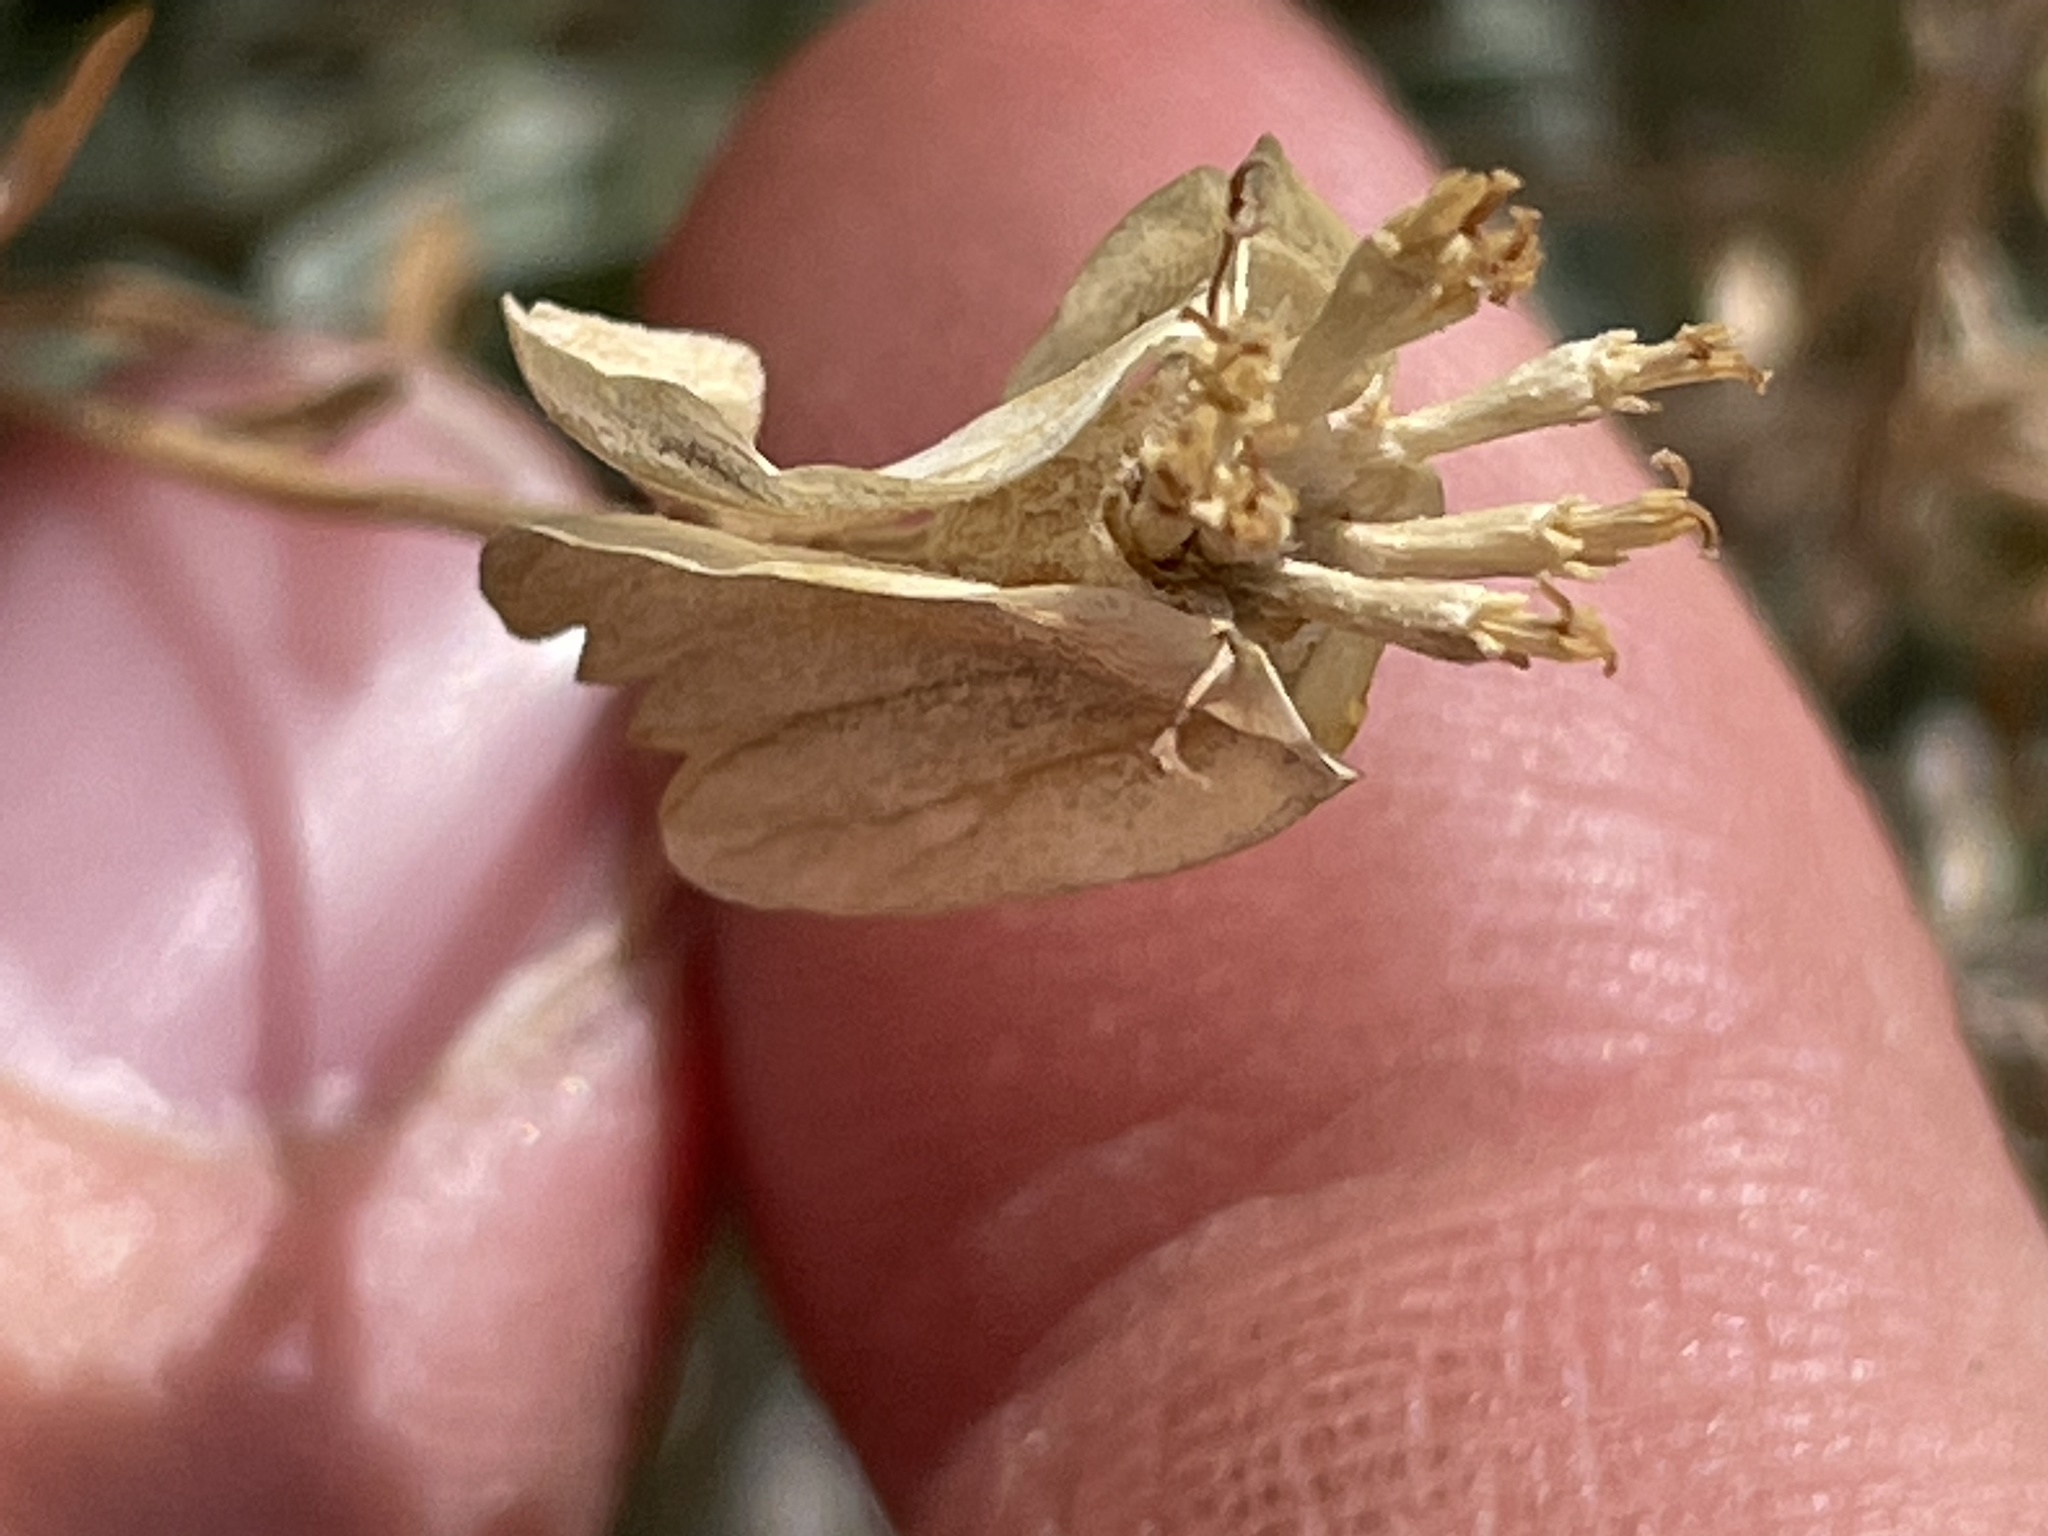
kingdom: Plantae
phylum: Tracheophyta
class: Magnoliopsida
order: Asterales
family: Asteraceae
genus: Psilostrophe
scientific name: Psilostrophe cooperi
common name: White-stem paper-flower
